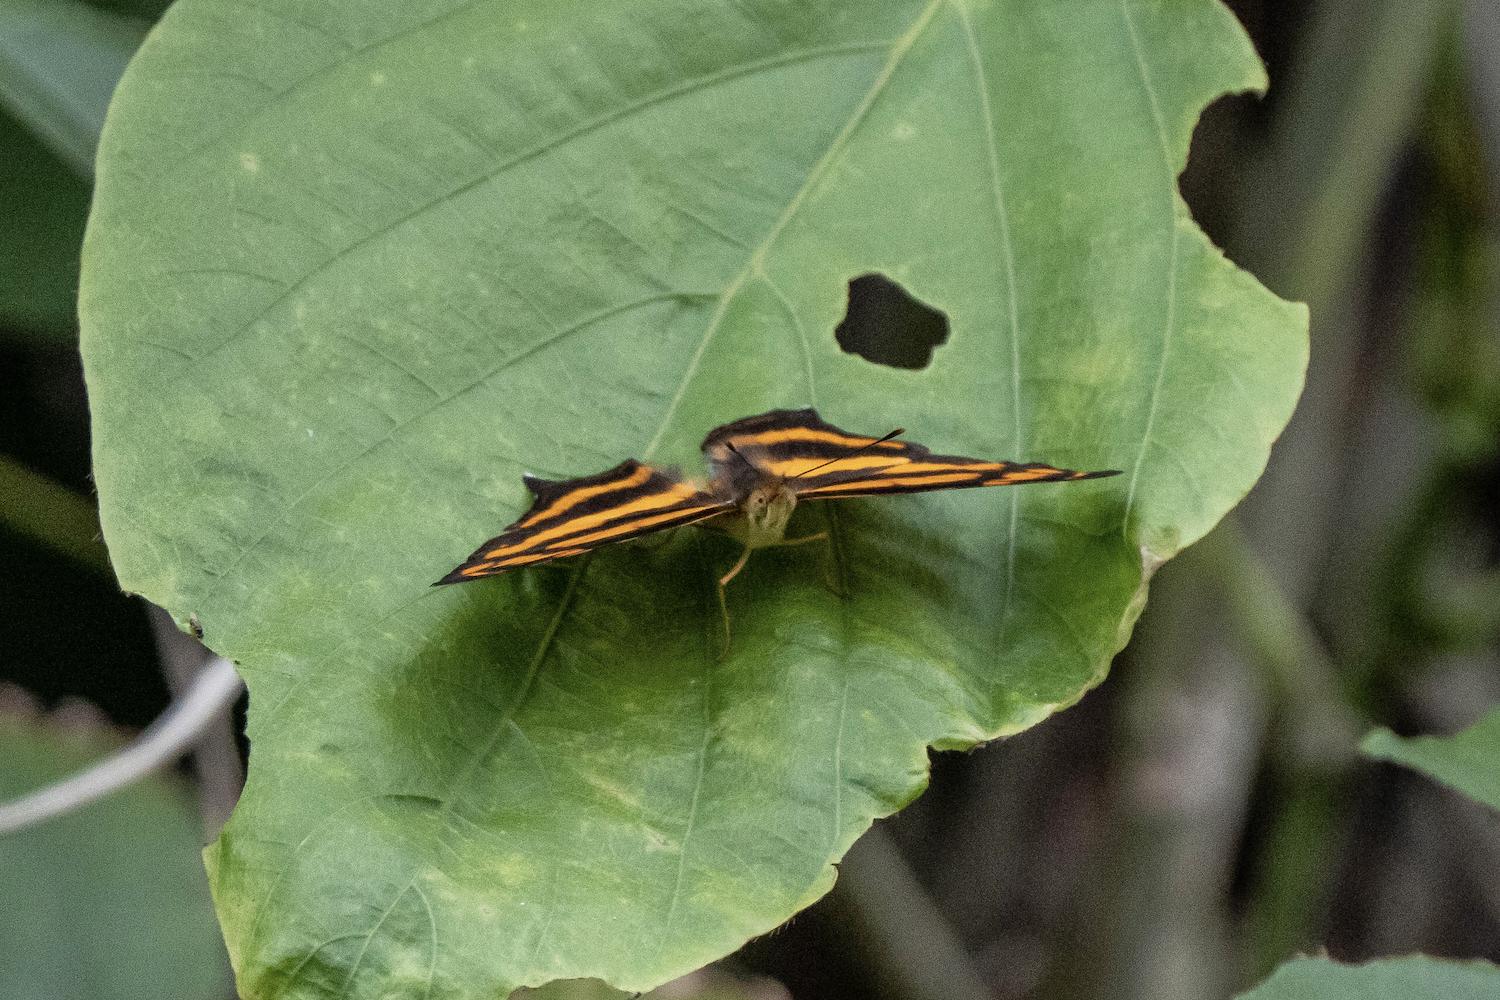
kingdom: Animalia
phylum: Arthropoda
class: Insecta
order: Lepidoptera
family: Nymphalidae
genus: Symbrenthia
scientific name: Symbrenthia hypselis
